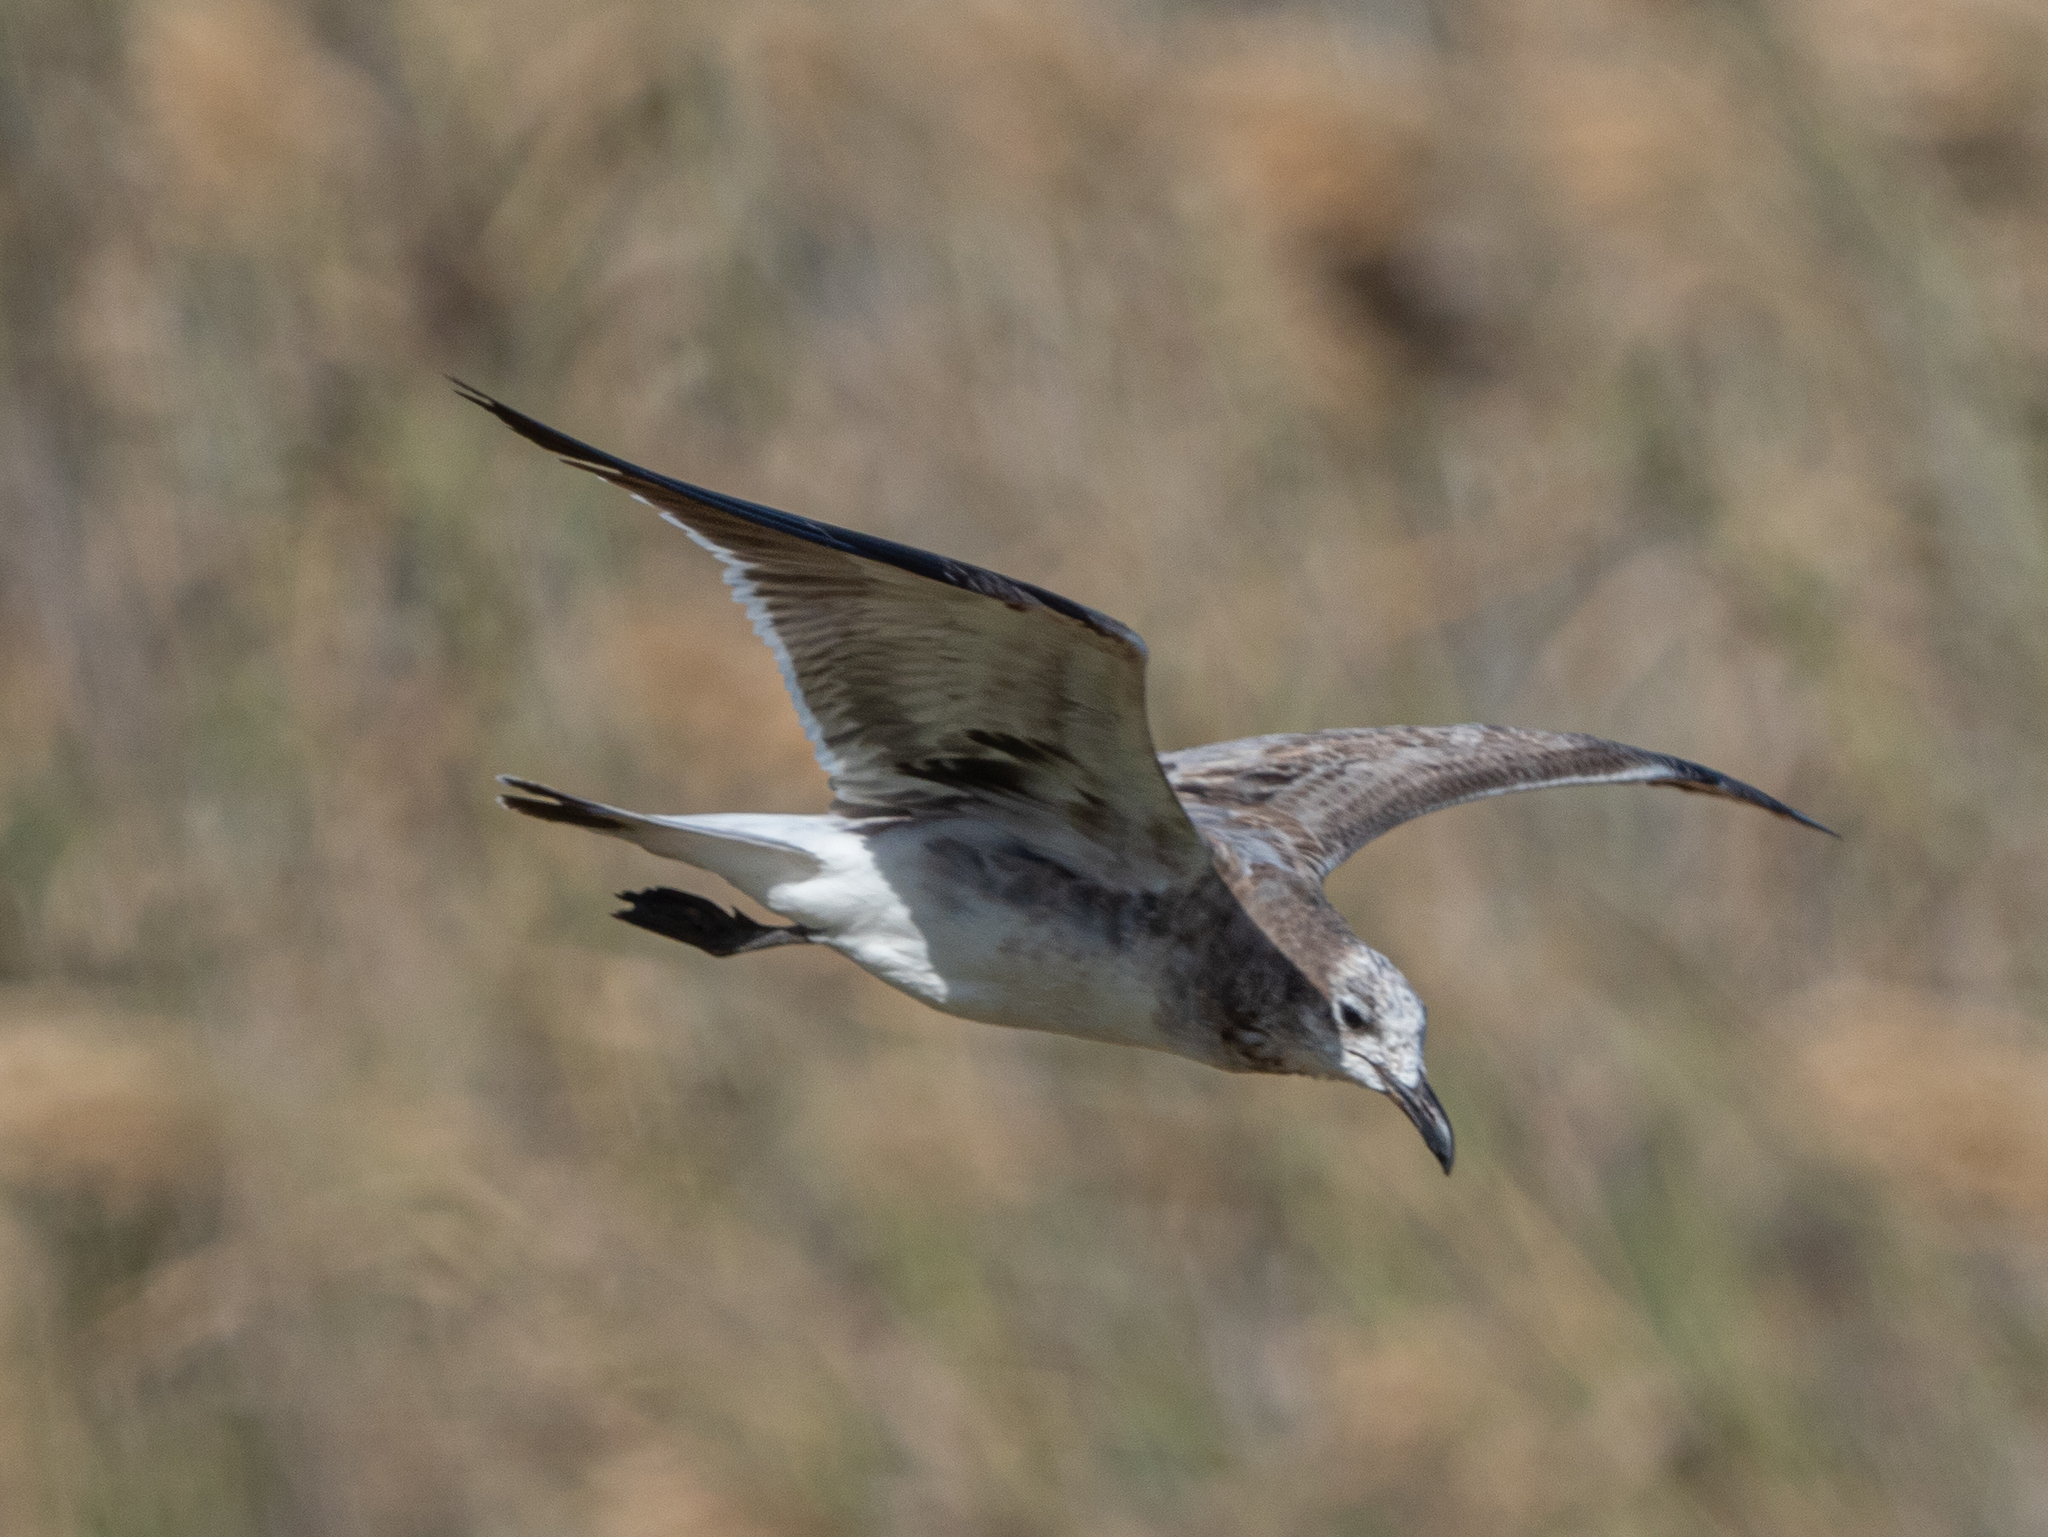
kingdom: Animalia
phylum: Chordata
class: Aves
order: Charadriiformes
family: Laridae
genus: Leucophaeus
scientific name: Leucophaeus atricilla
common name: Laughing gull
